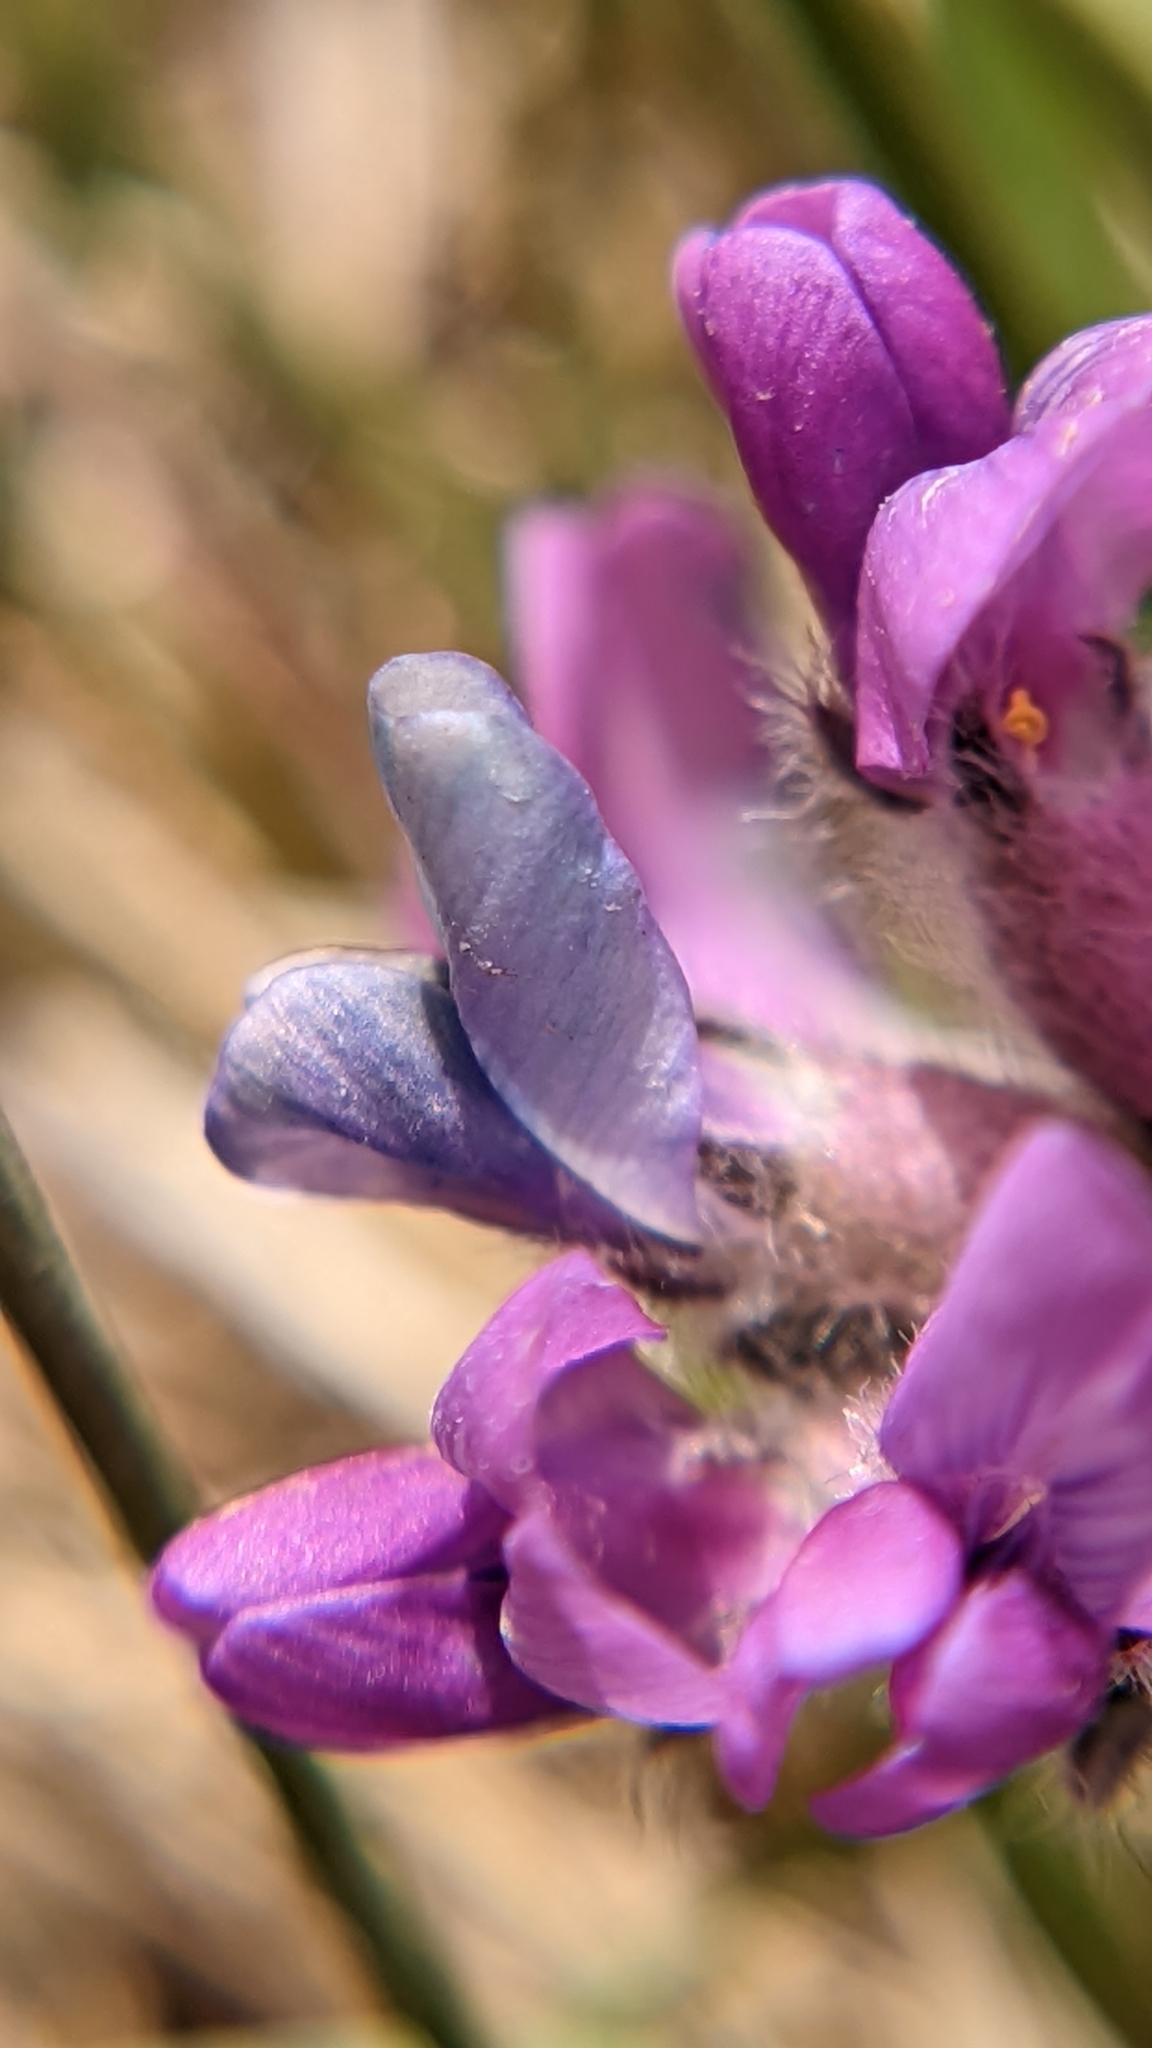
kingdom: Plantae
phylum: Tracheophyta
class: Magnoliopsida
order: Fabales
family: Fabaceae
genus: Oxytropis
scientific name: Oxytropis oreophila
